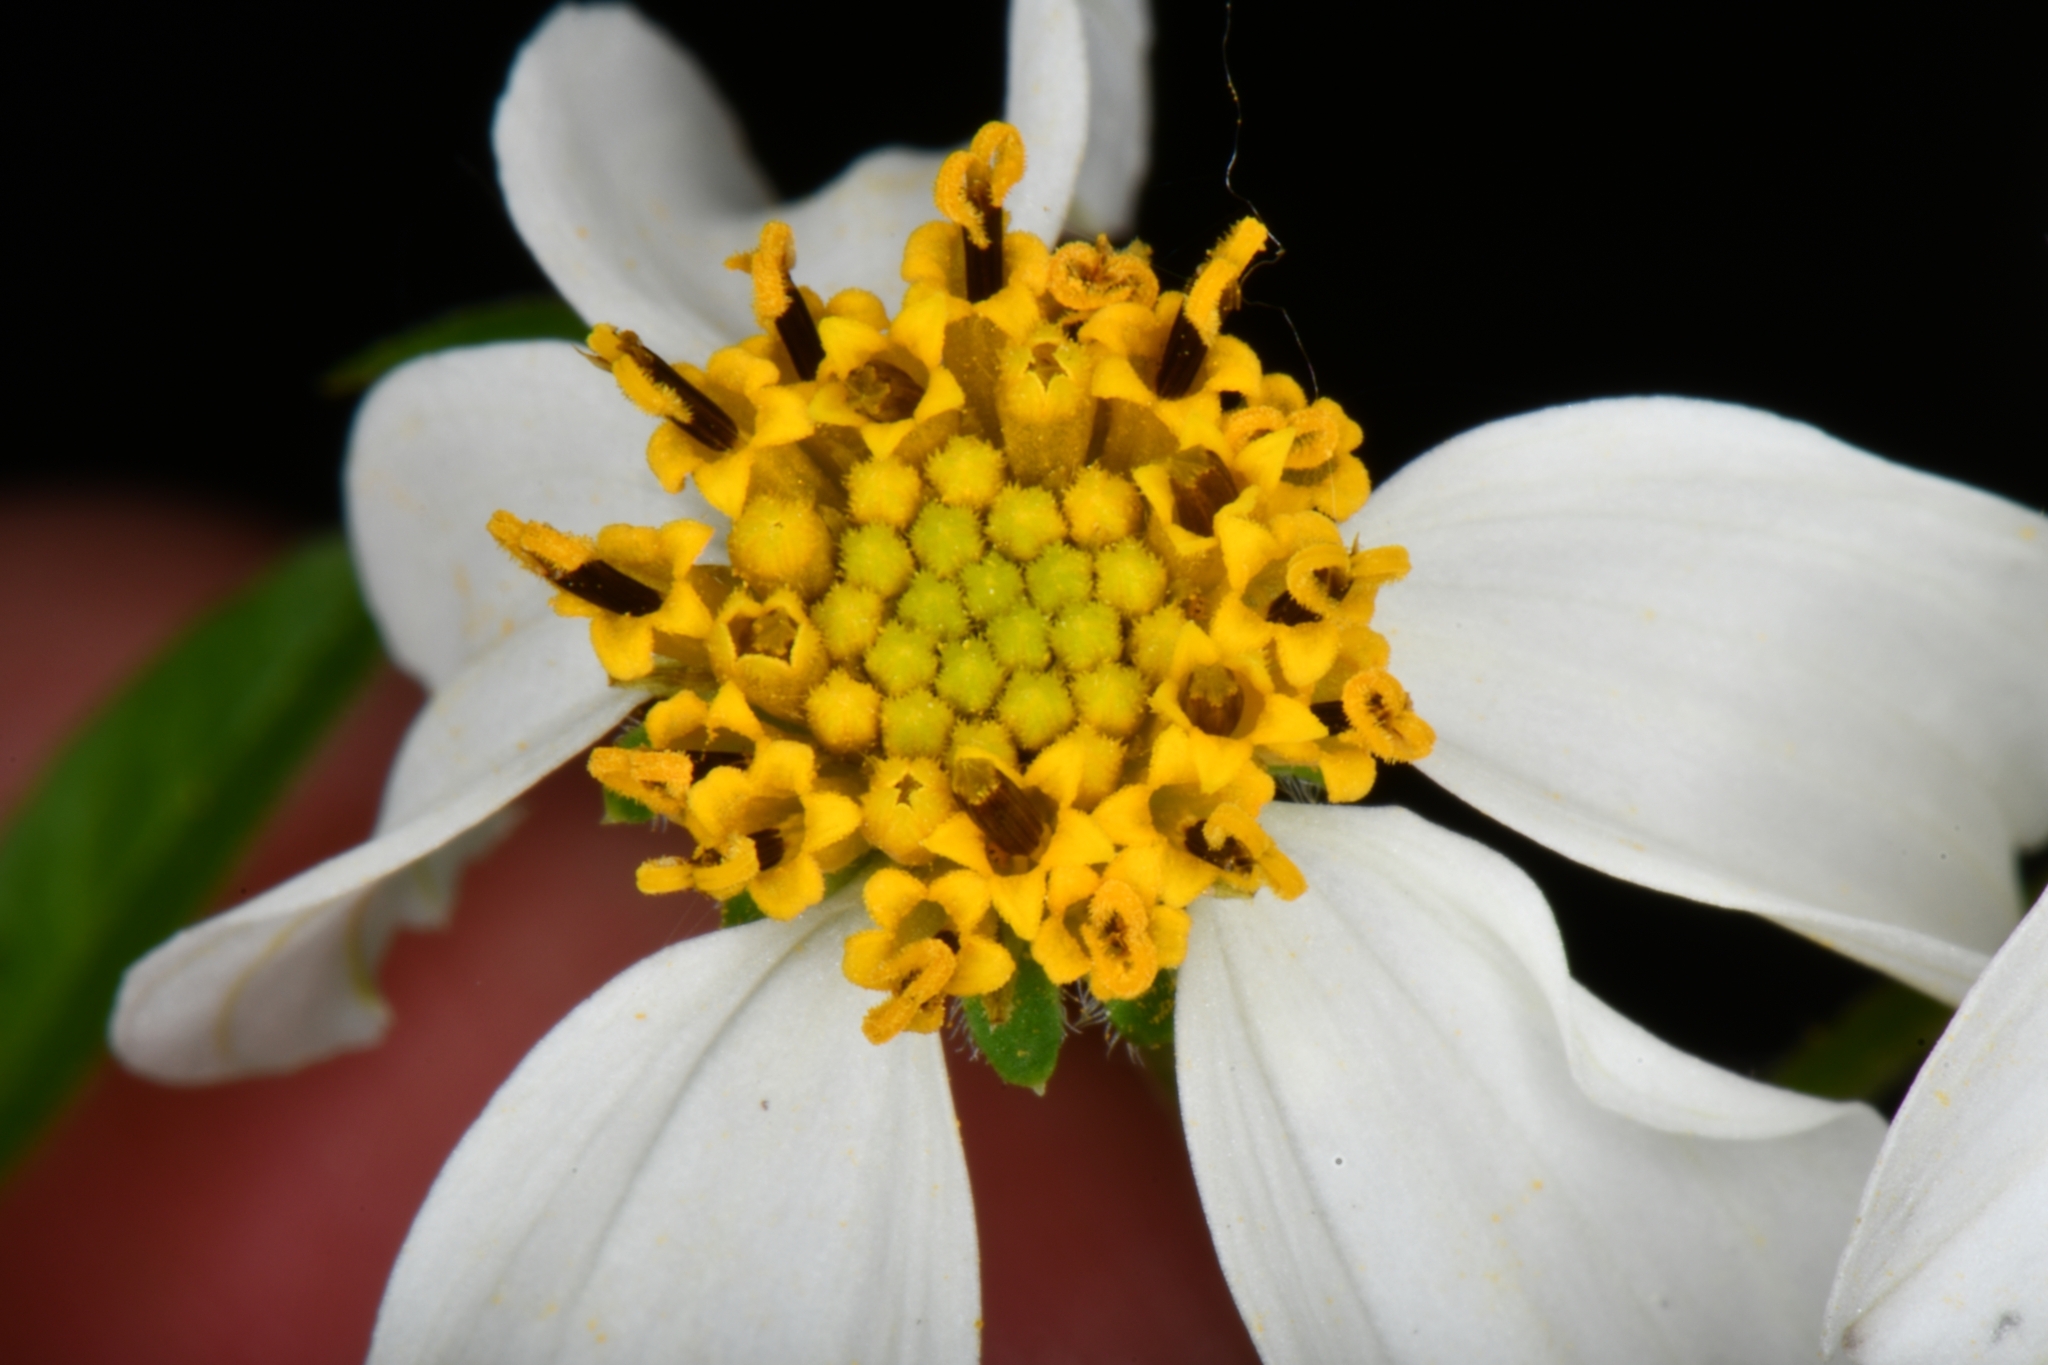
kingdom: Plantae
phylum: Tracheophyta
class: Magnoliopsida
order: Asterales
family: Asteraceae
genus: Bidens
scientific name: Bidens alba
